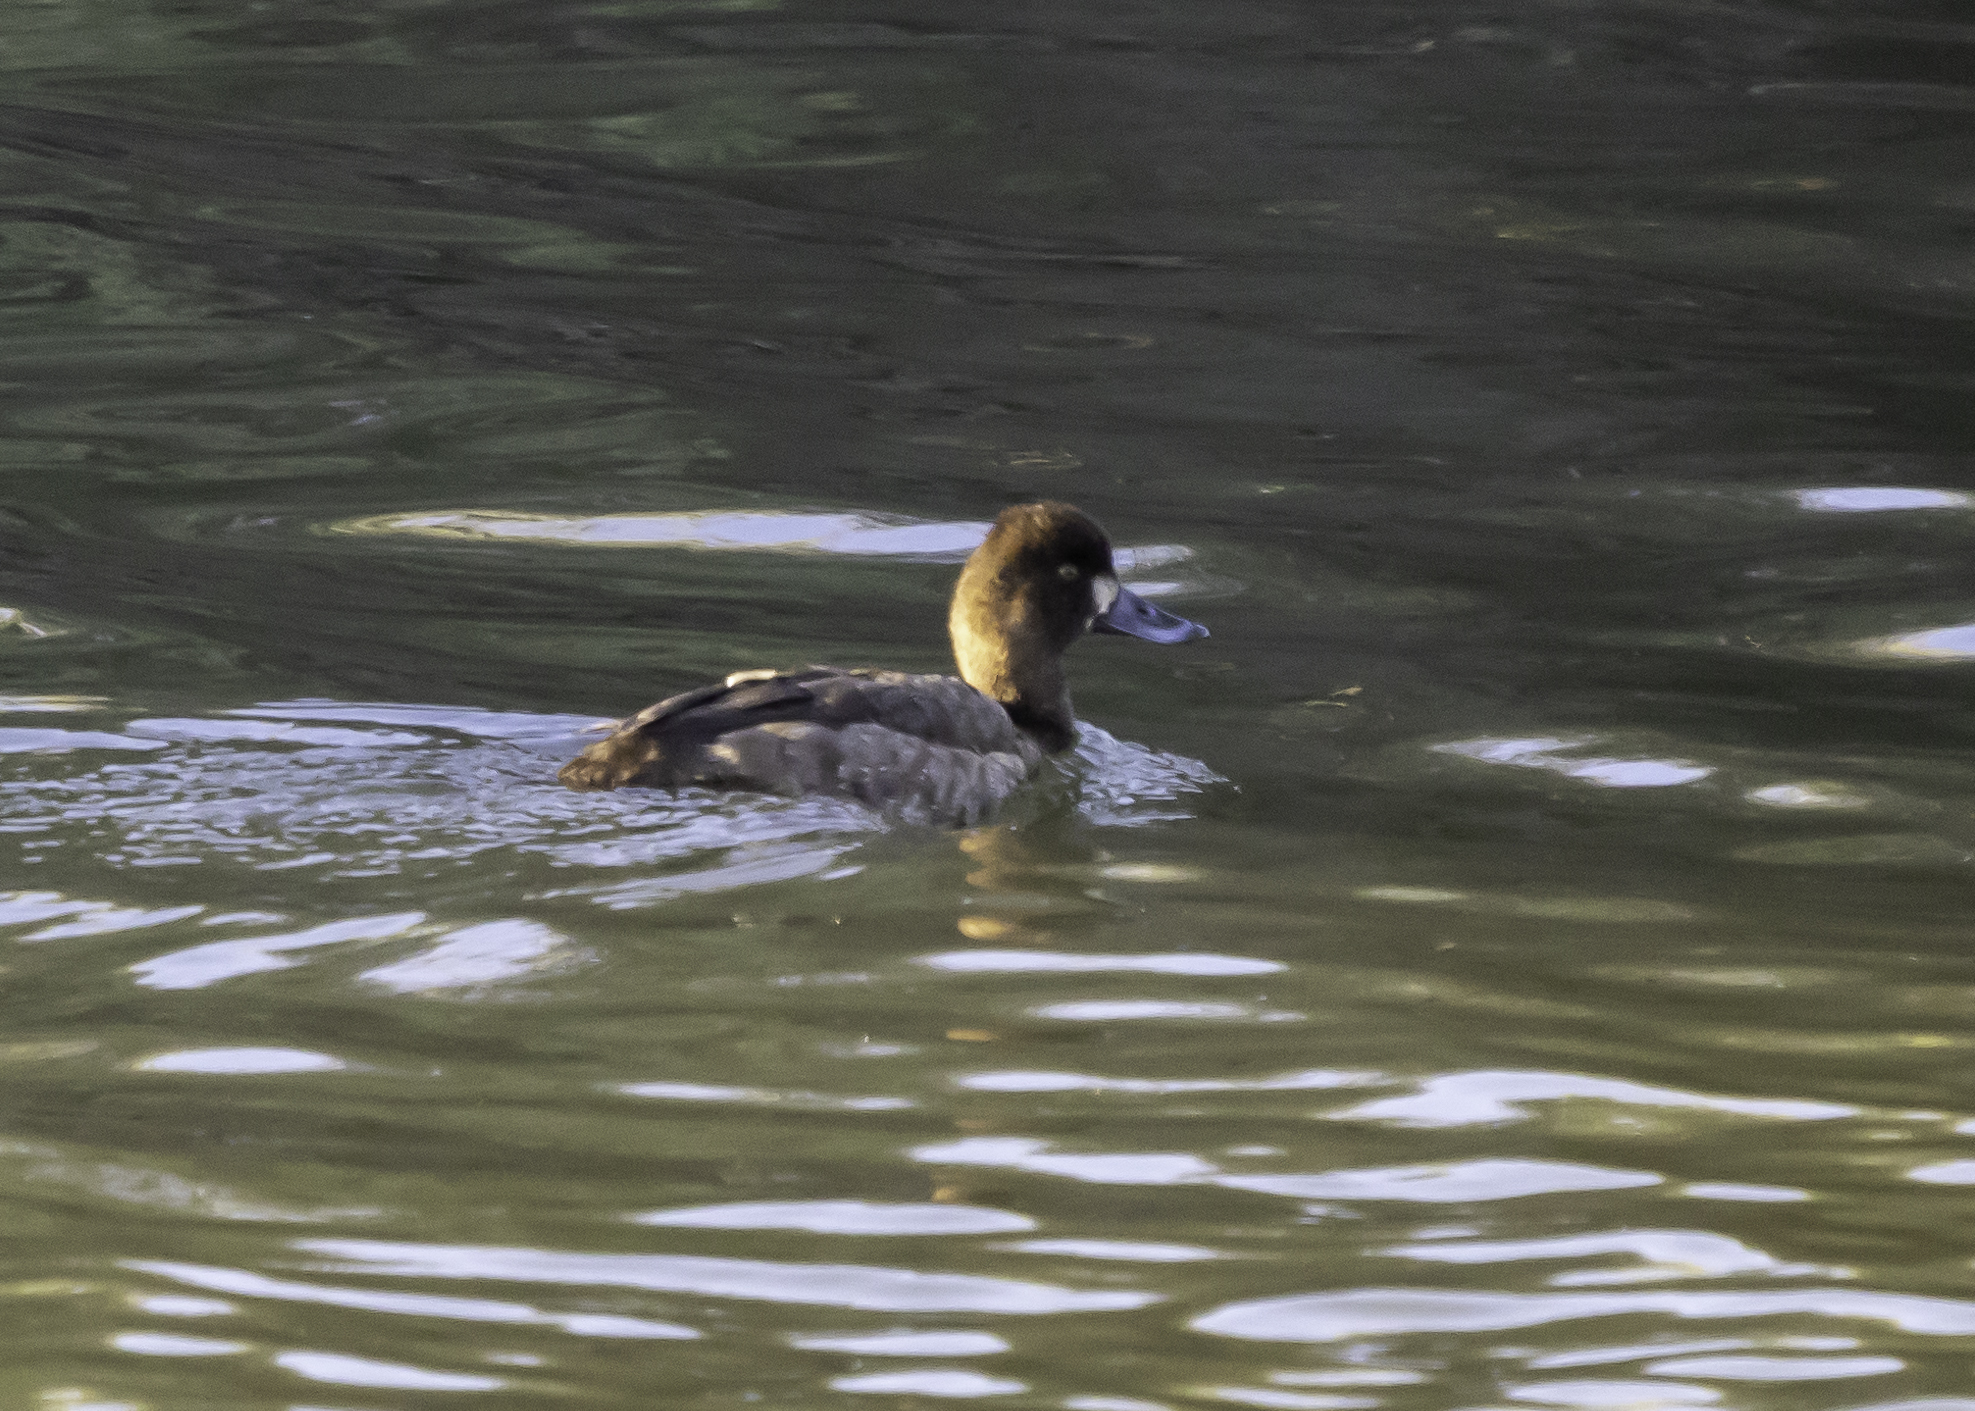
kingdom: Animalia
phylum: Chordata
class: Aves
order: Anseriformes
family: Anatidae
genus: Aythya
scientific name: Aythya affinis
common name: Lesser scaup
